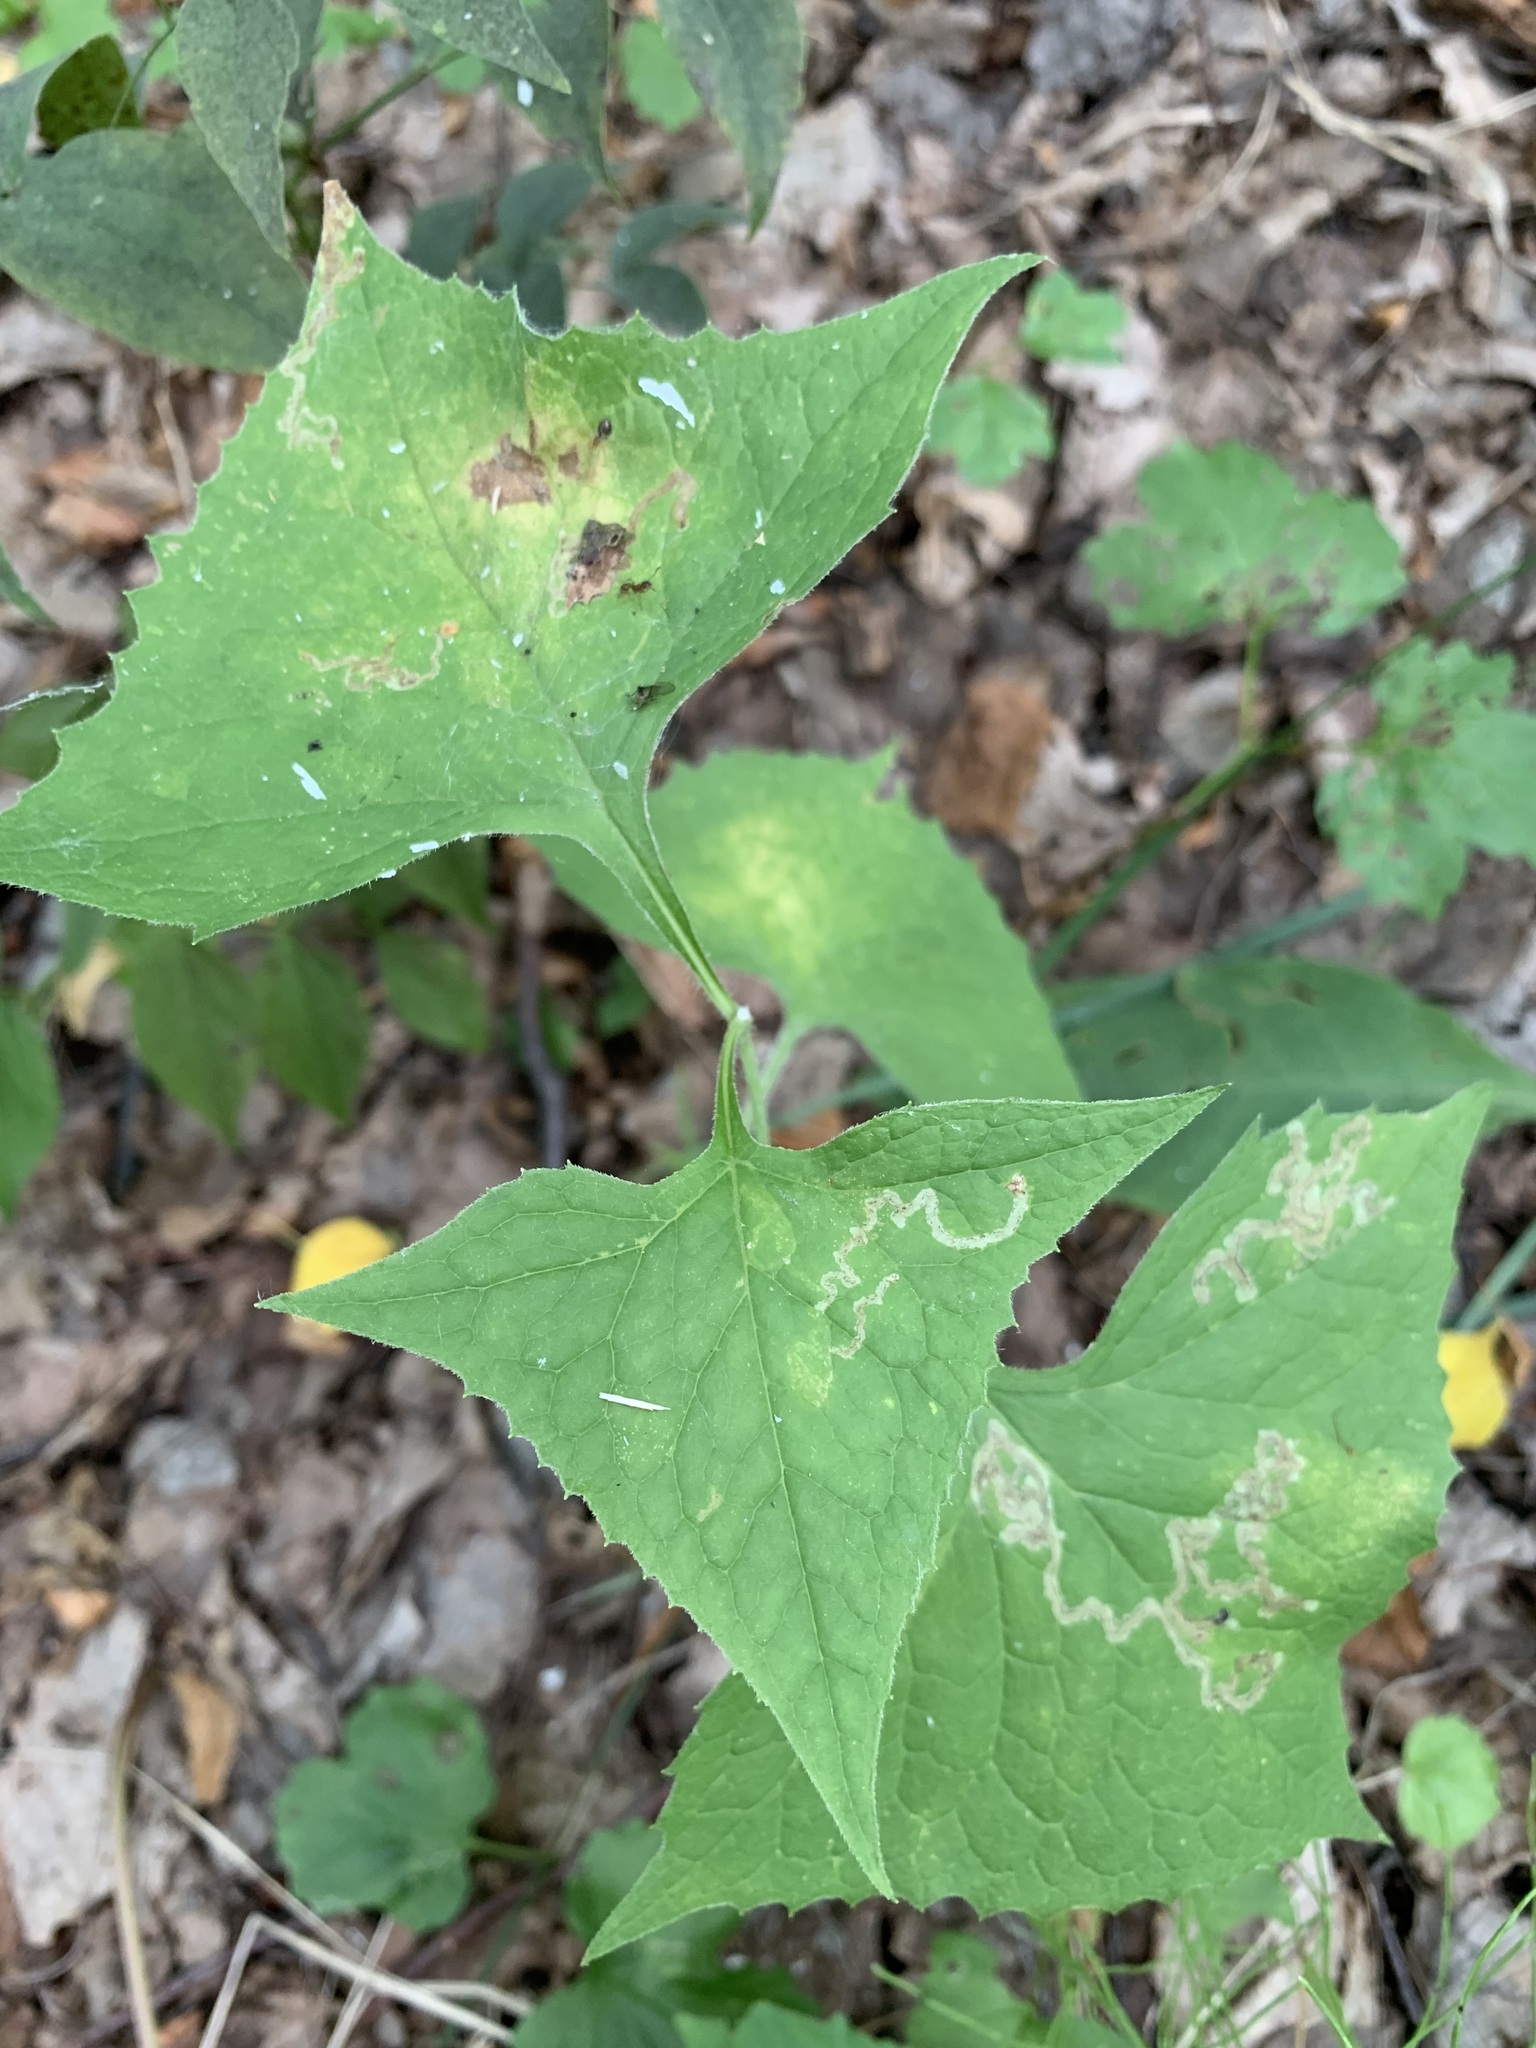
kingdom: Plantae
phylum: Tracheophyta
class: Magnoliopsida
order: Asterales
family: Asteraceae
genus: Parasenecio
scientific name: Parasenecio hastatus
